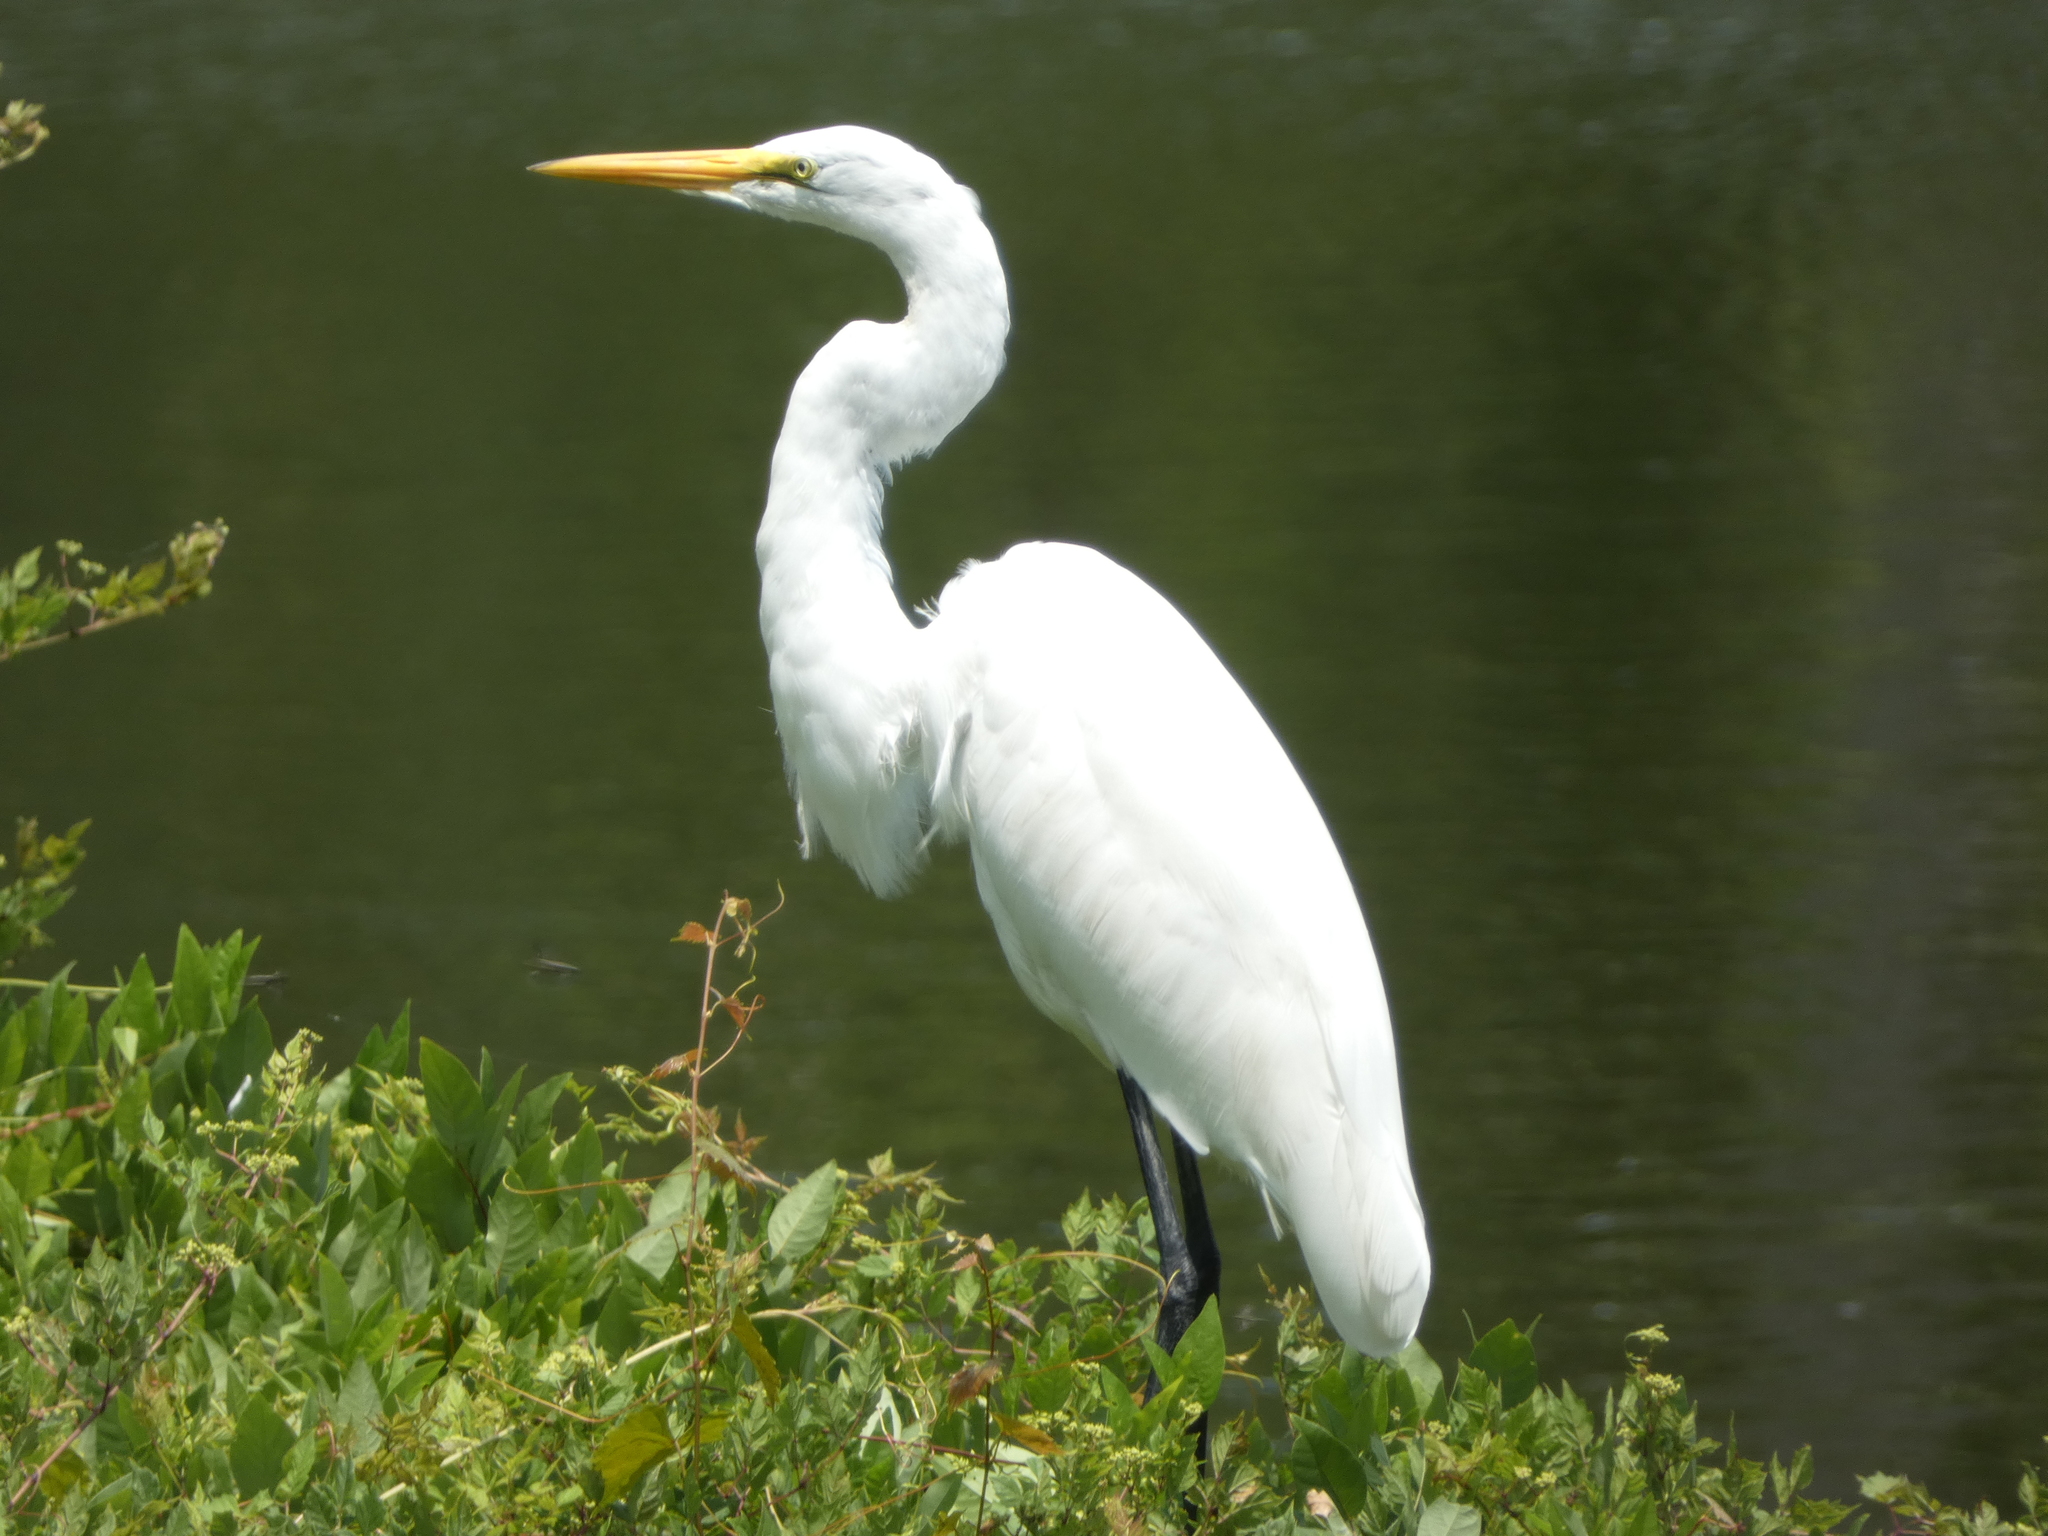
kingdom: Animalia
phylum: Chordata
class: Aves
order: Pelecaniformes
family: Ardeidae
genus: Ardea
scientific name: Ardea alba
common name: Great egret
